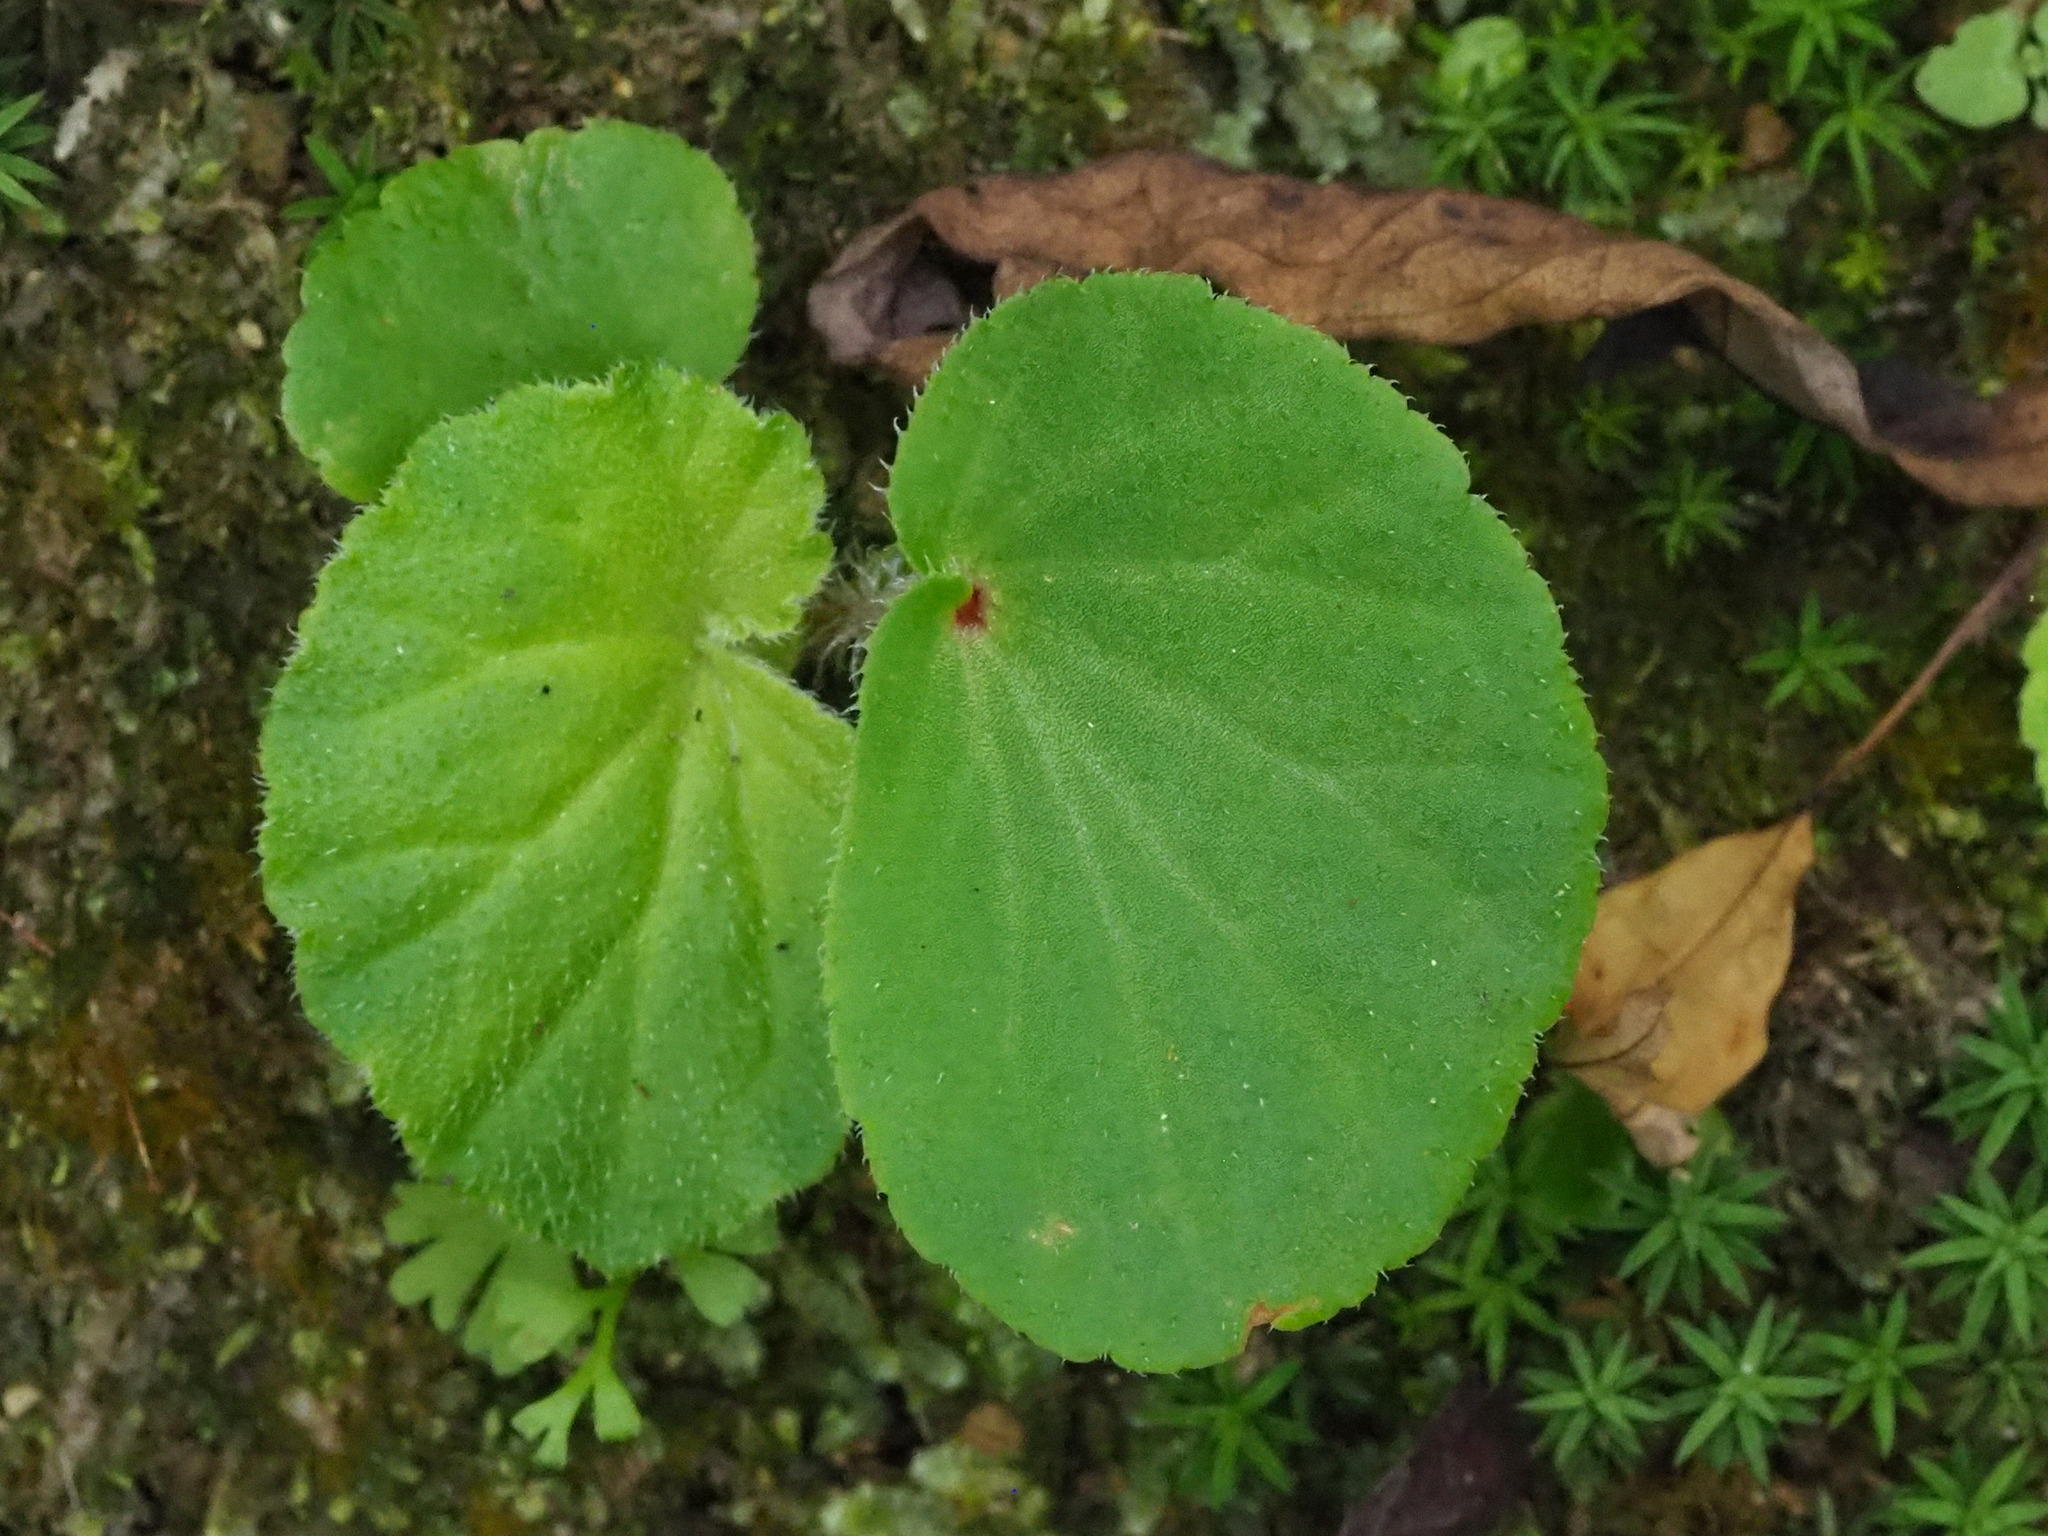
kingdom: Plantae
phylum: Tracheophyta
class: Magnoliopsida
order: Cucurbitales
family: Begoniaceae
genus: Begonia
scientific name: Begonia hirtella
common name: Brazilian begonia
